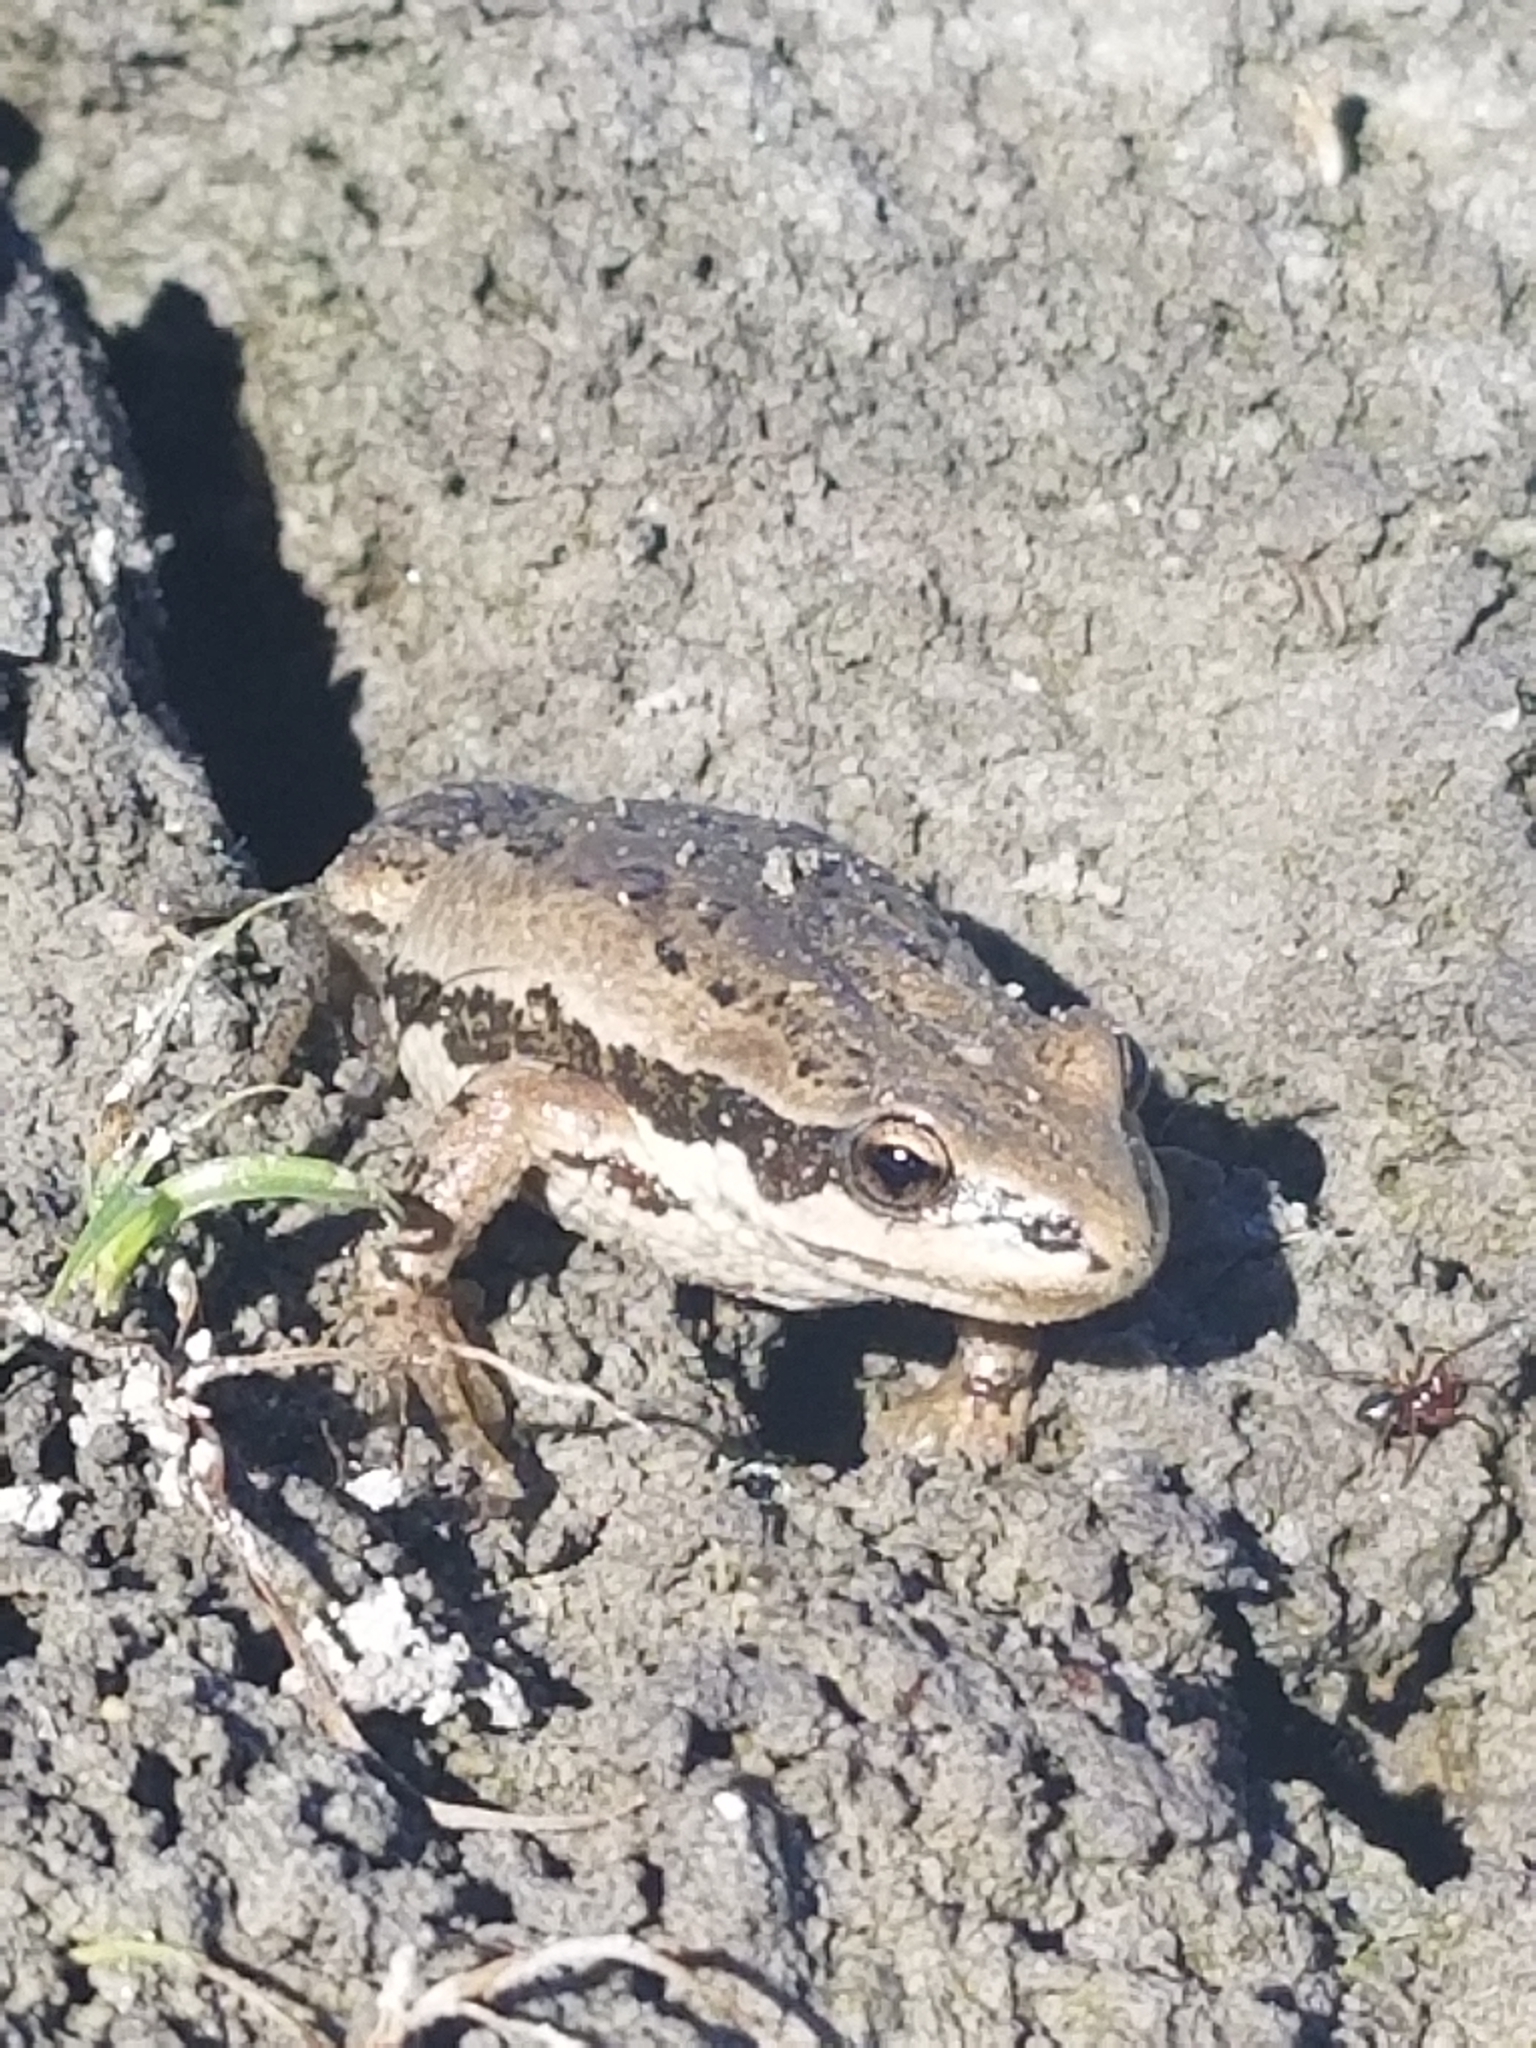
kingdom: Animalia
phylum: Chordata
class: Amphibia
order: Anura
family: Hylidae
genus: Pseudacris
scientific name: Pseudacris maculata
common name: Boreal chorus frog
